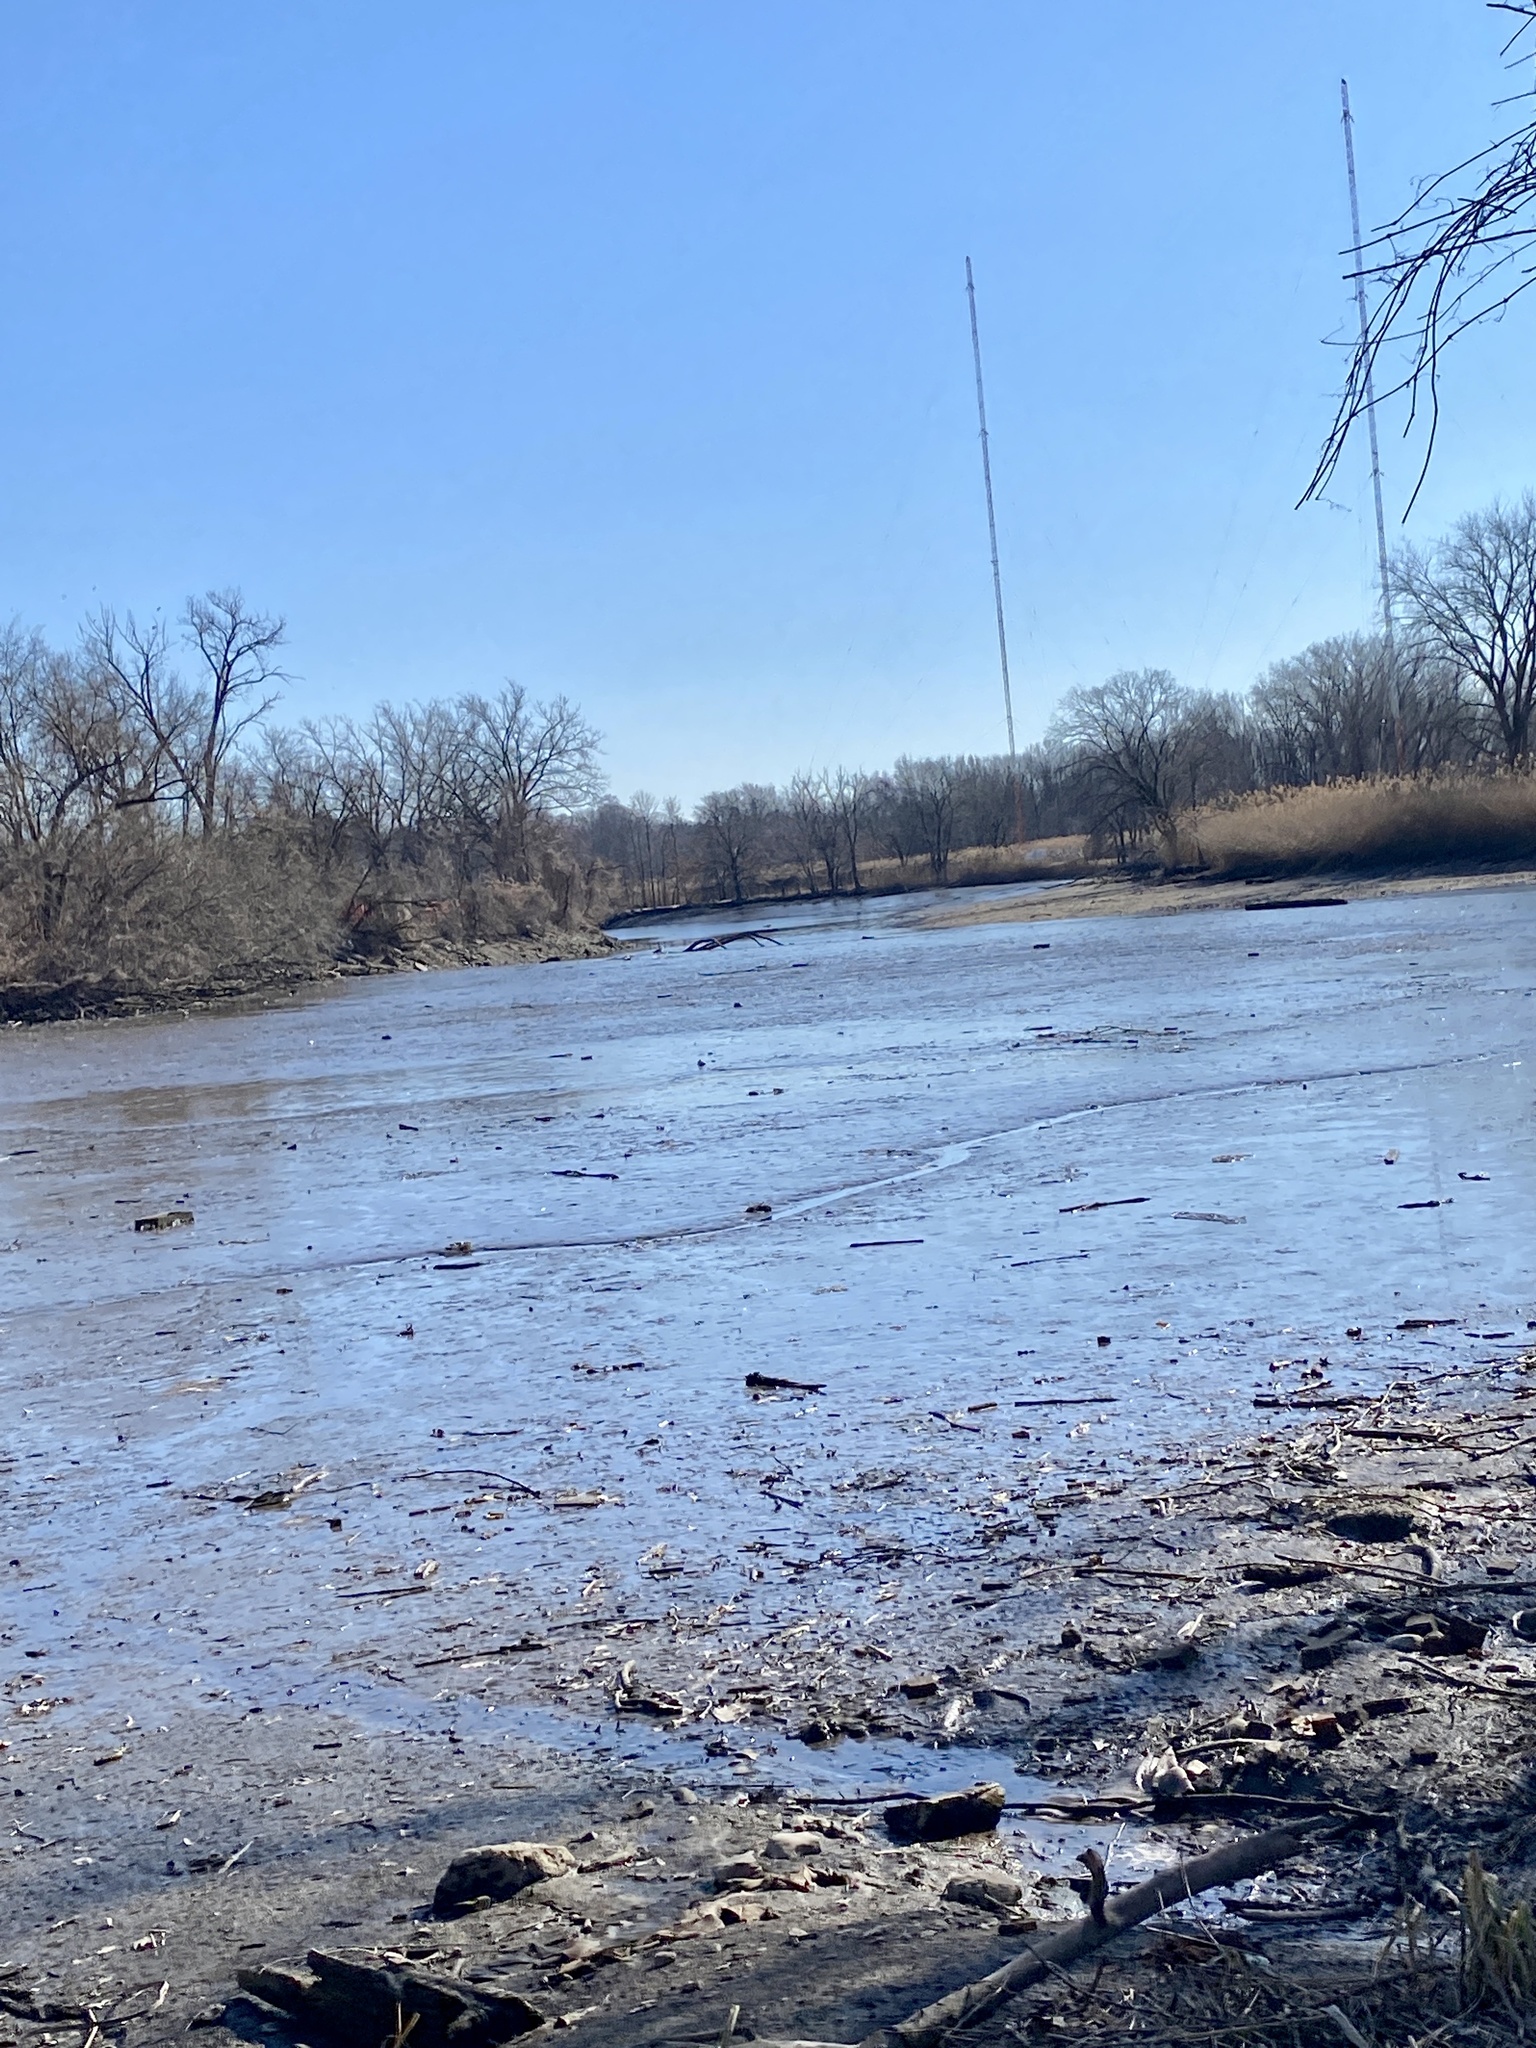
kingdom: Plantae
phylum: Tracheophyta
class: Magnoliopsida
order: Ranunculales
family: Ranunculaceae
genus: Ficaria
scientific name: Ficaria verna
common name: Lesser celandine
